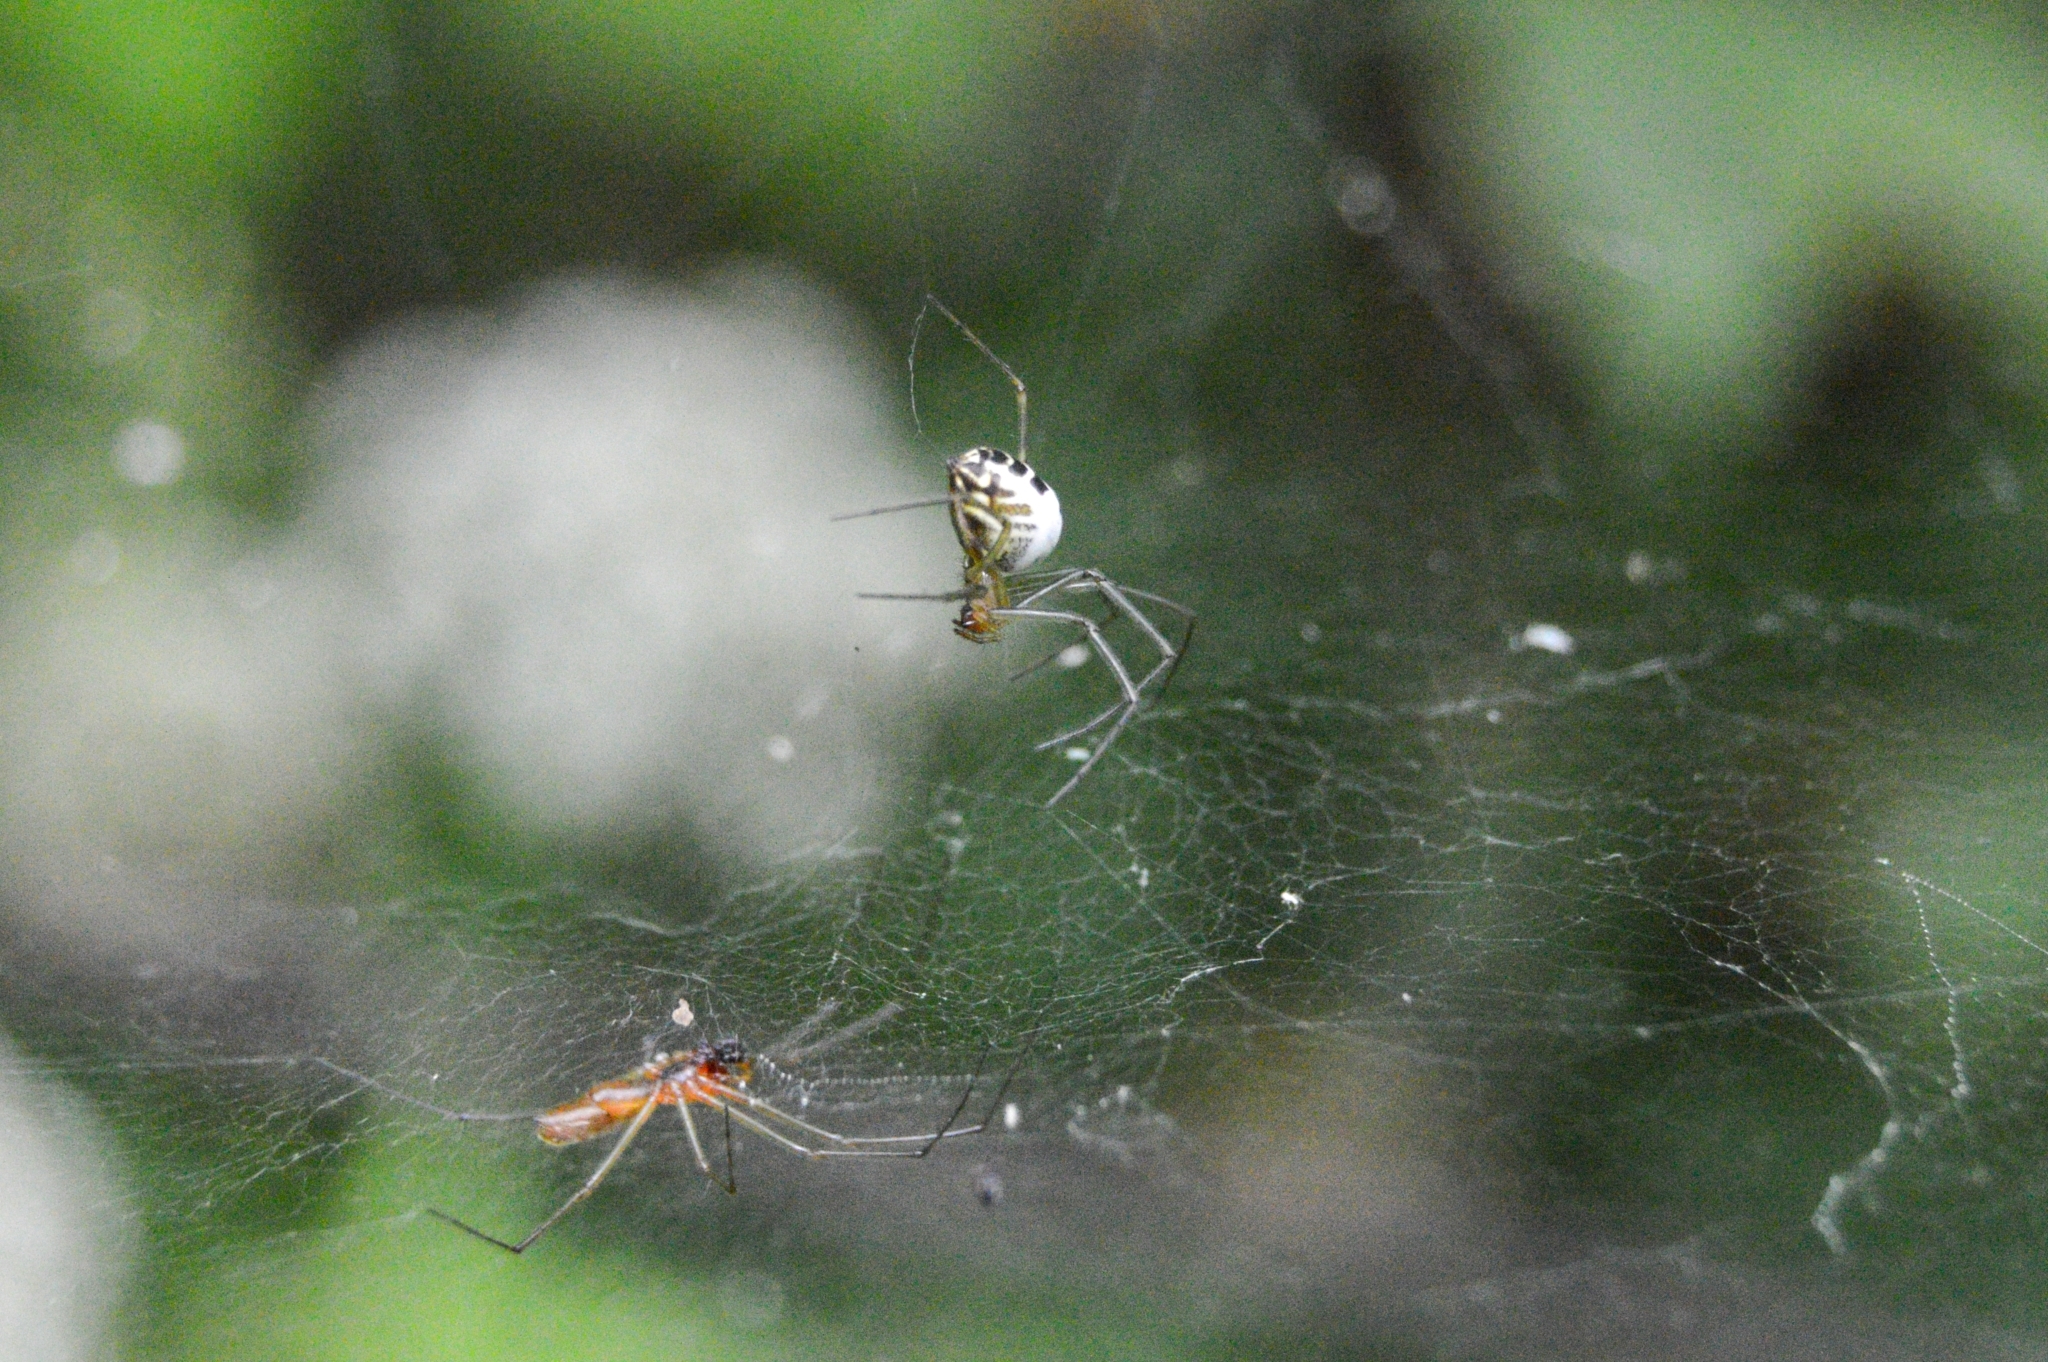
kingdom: Animalia
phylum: Arthropoda
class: Arachnida
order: Araneae
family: Linyphiidae
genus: Neriene
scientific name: Neriene emphana
